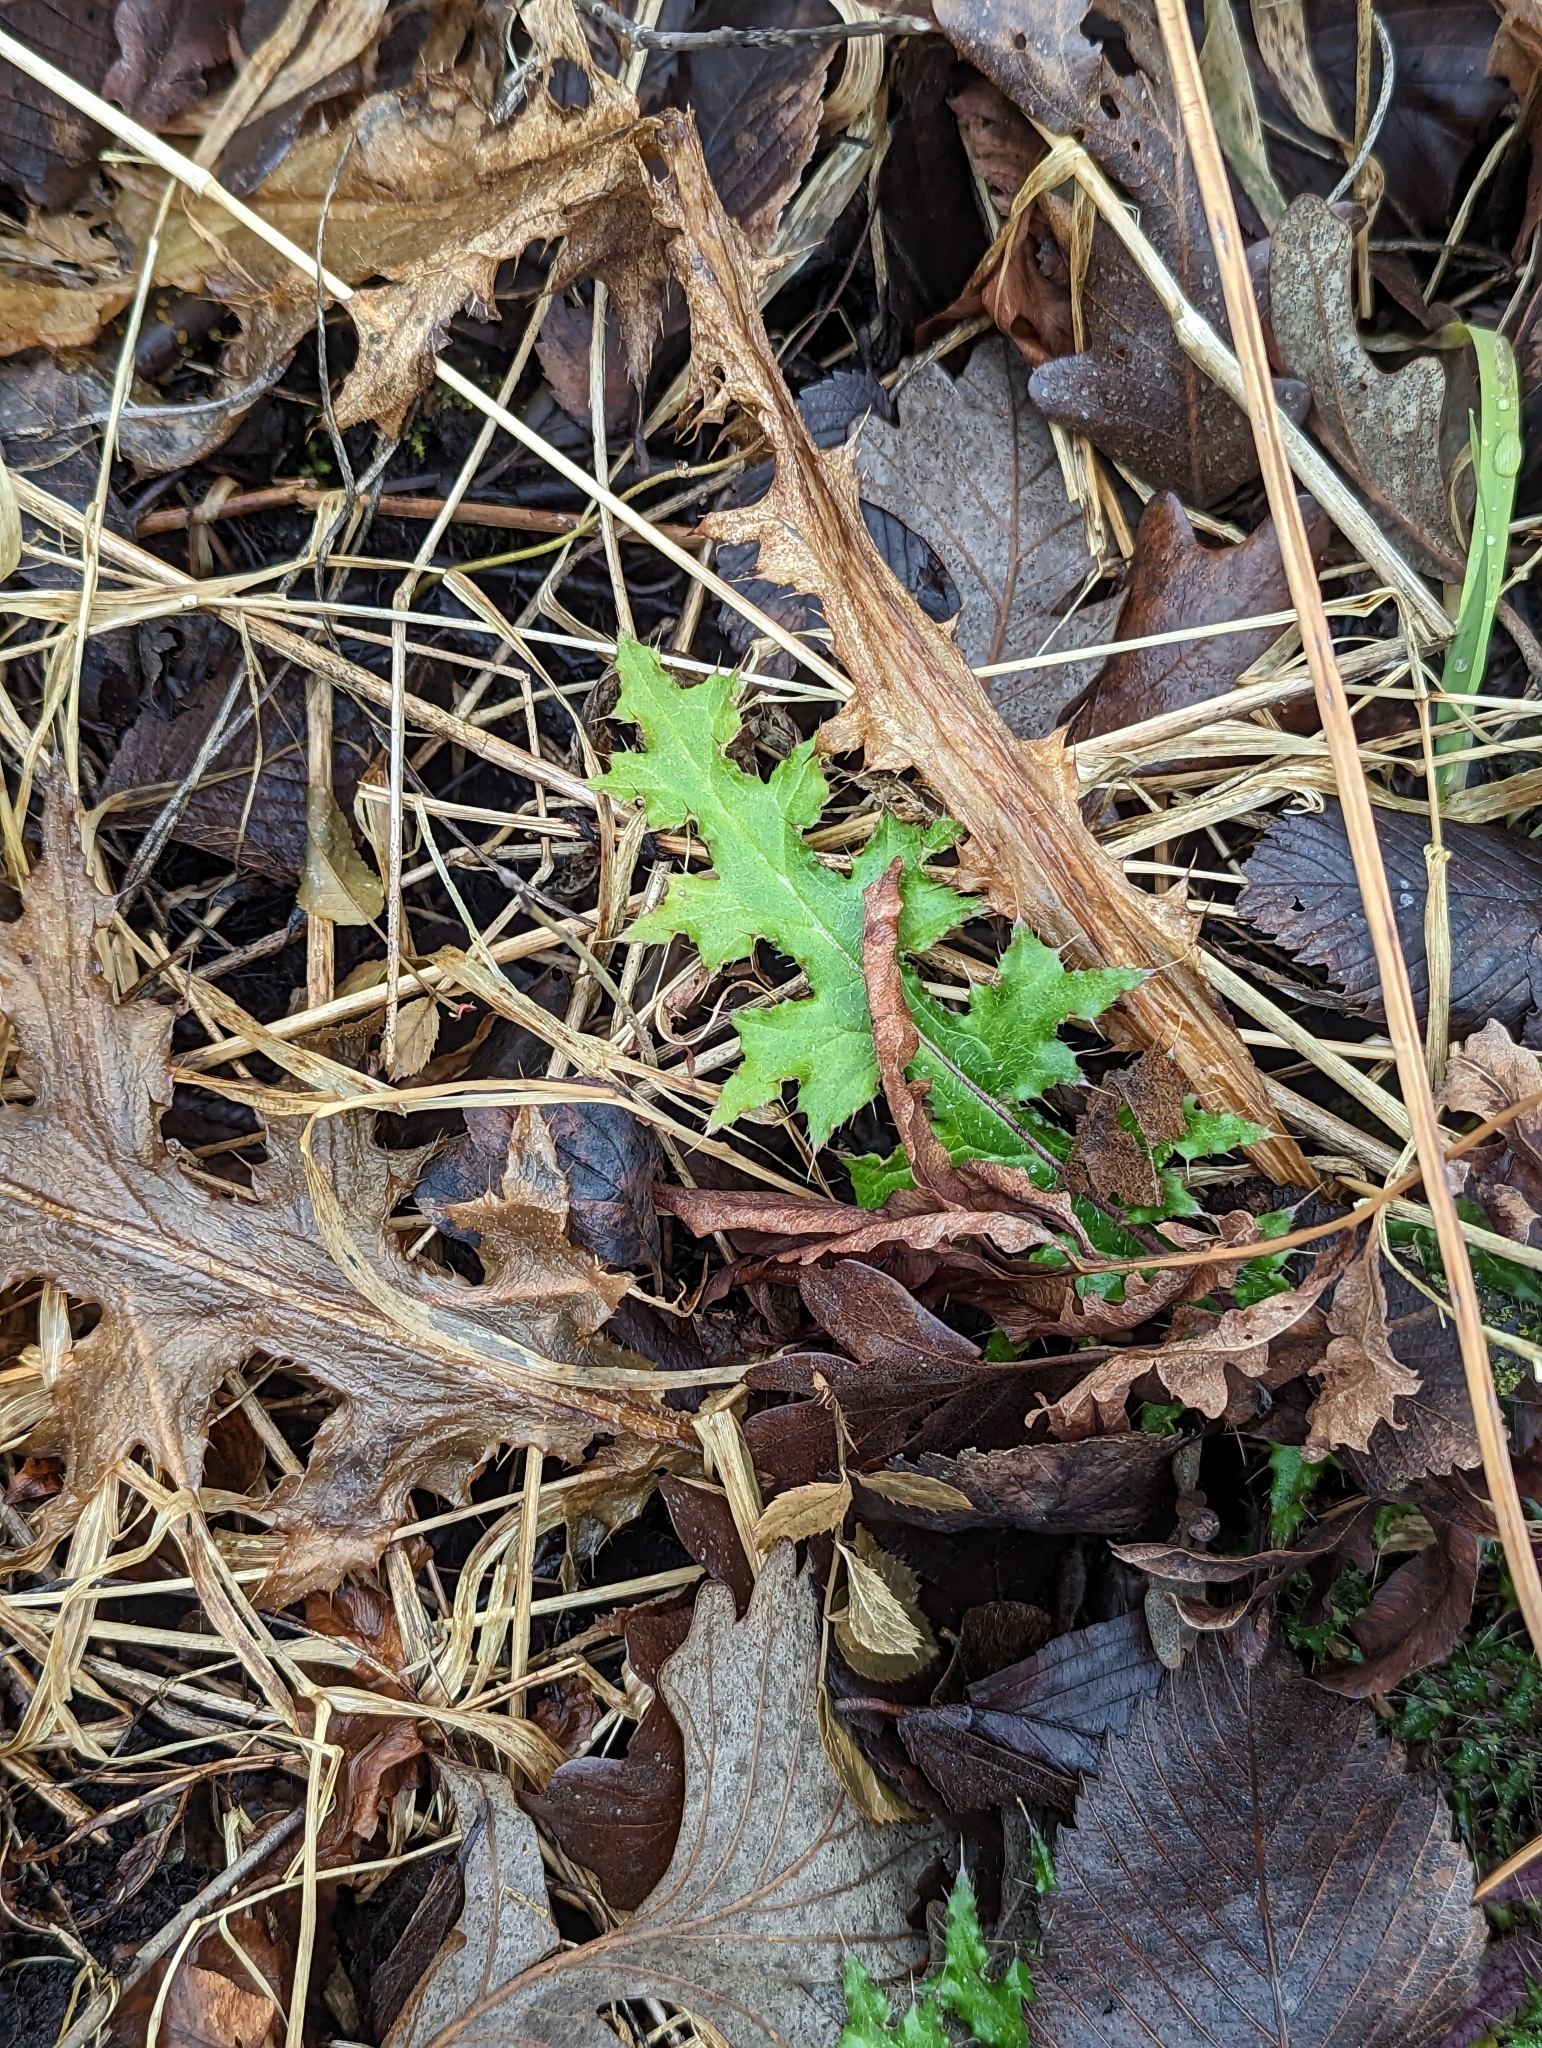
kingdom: Plantae
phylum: Tracheophyta
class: Magnoliopsida
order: Asterales
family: Asteraceae
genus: Cirsium
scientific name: Cirsium muticum
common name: Dunce-nettle
